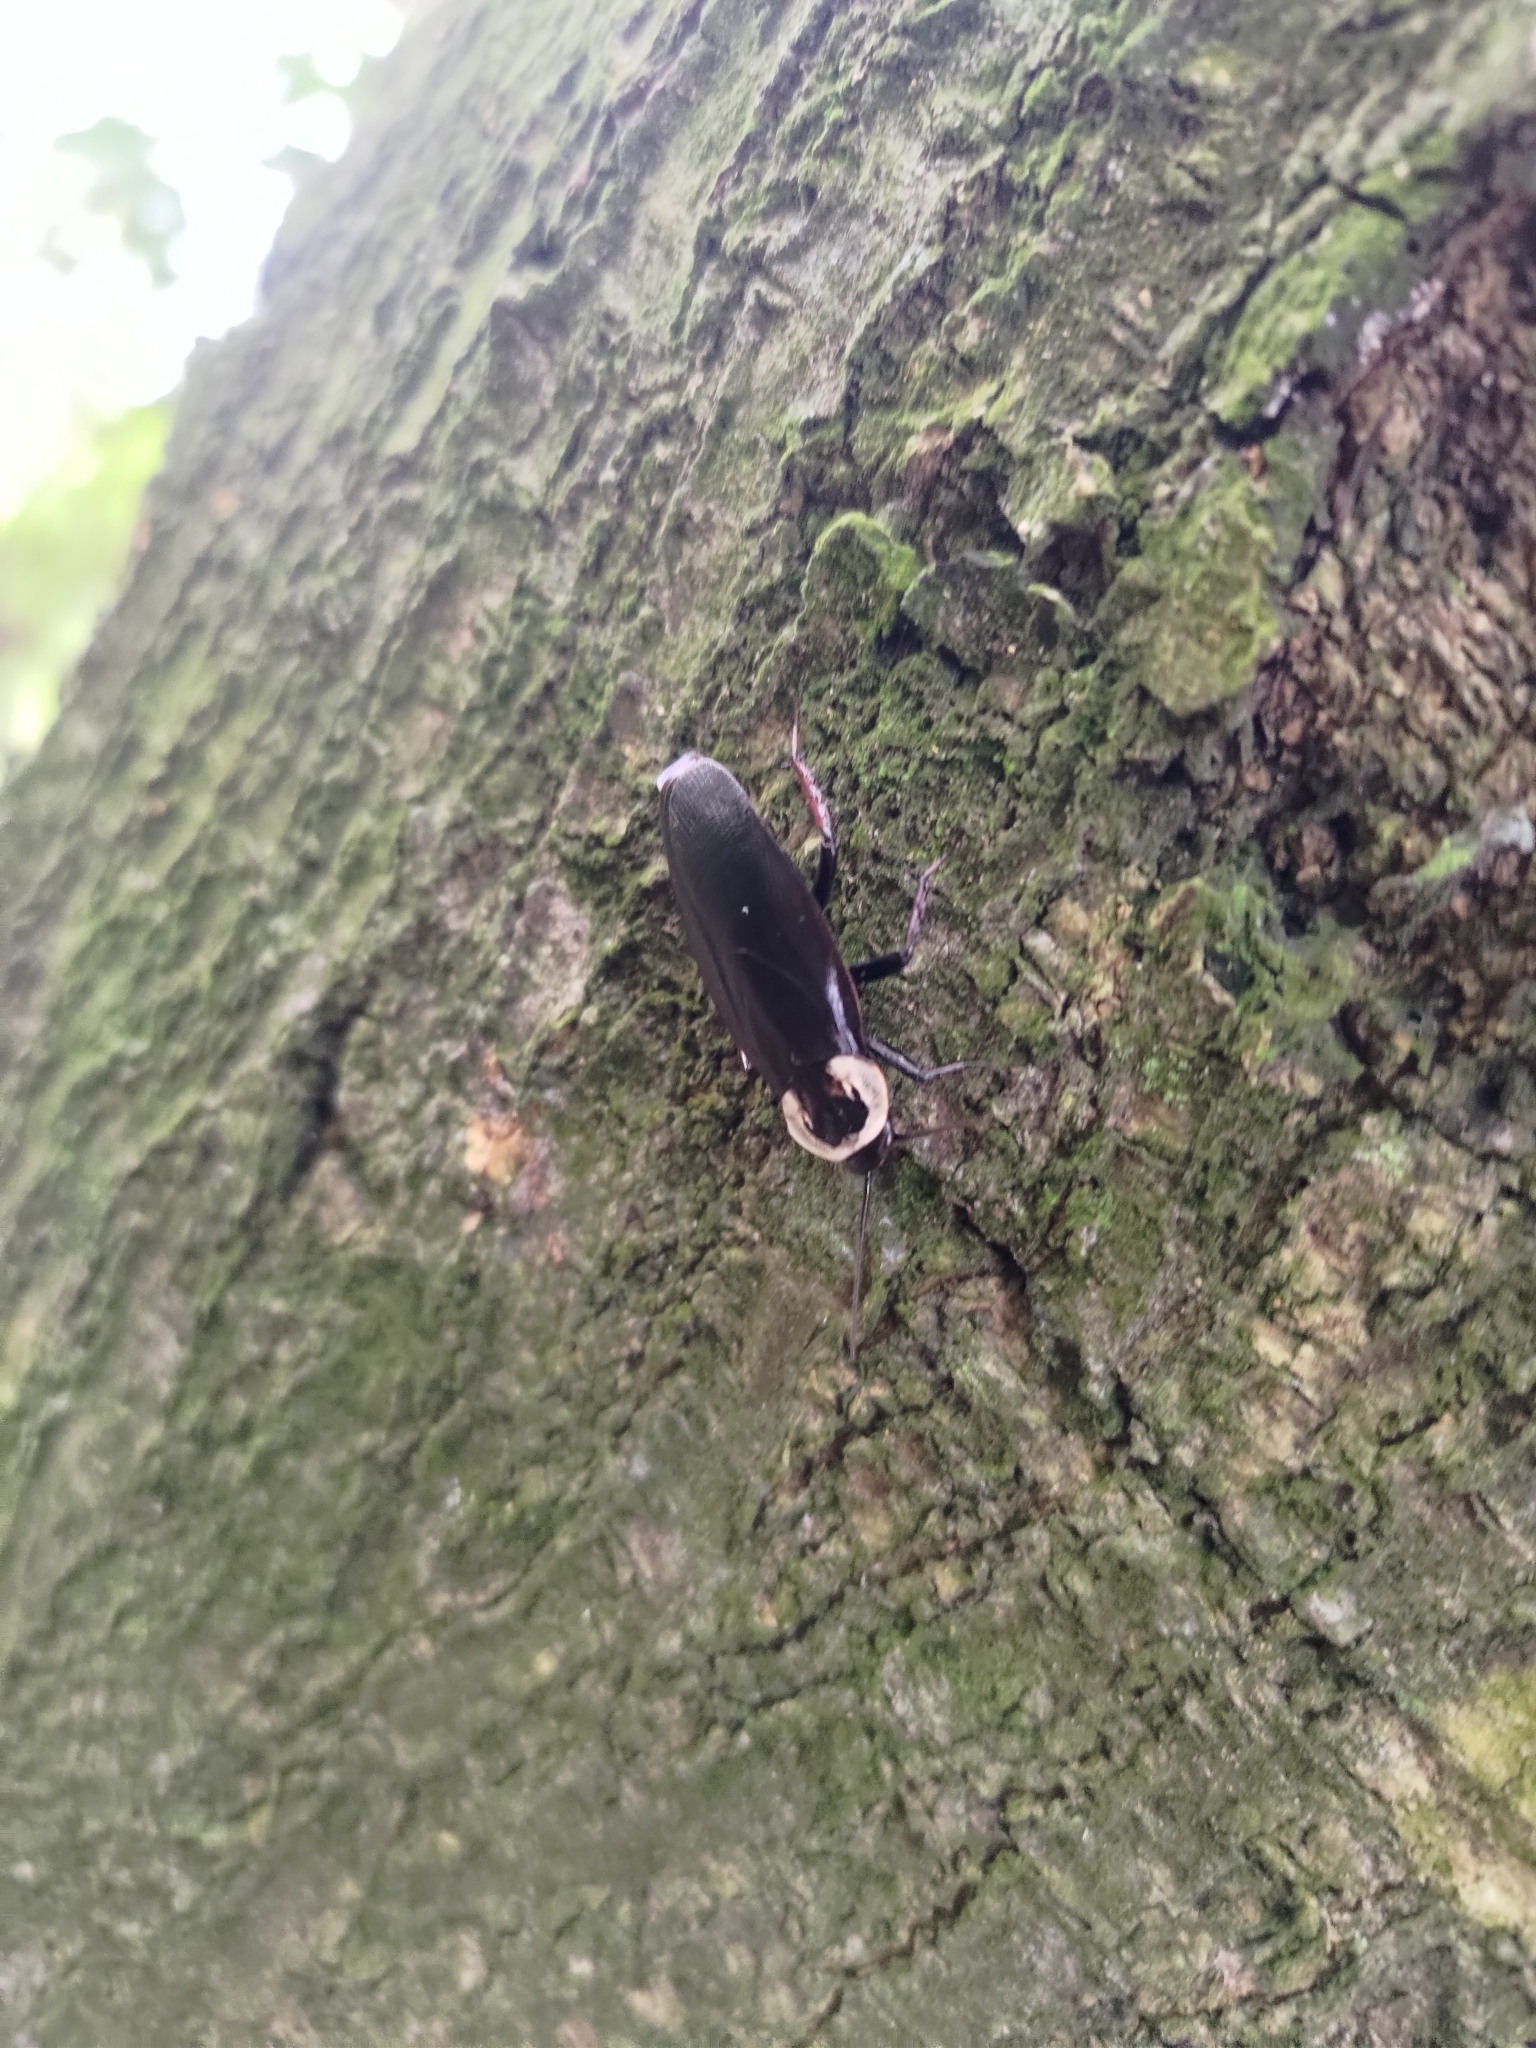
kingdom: Animalia
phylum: Arthropoda
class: Insecta
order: Blattodea
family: Blattidae
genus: Homalosilpha
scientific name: Homalosilpha gaudens
